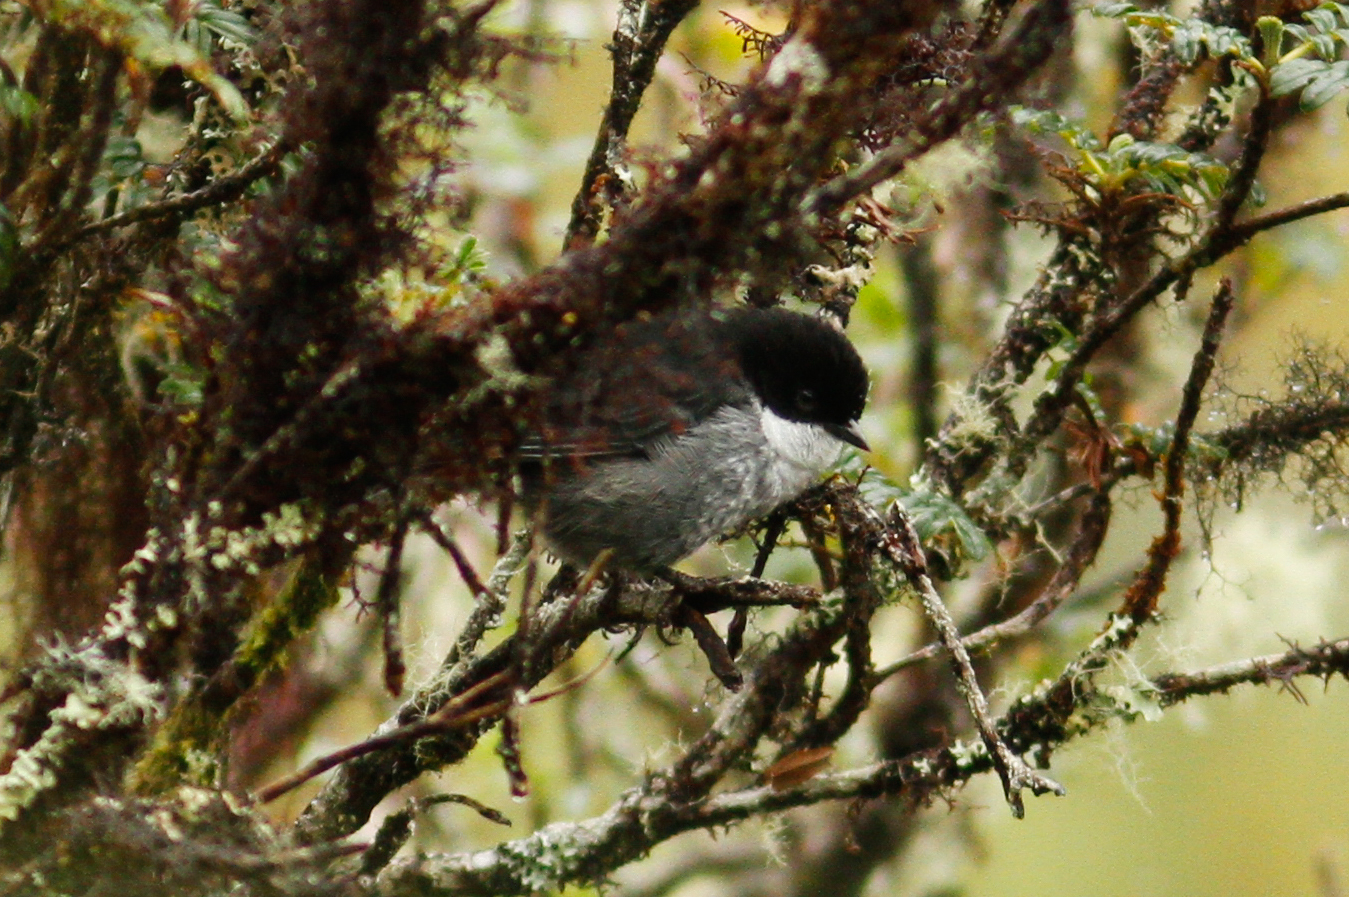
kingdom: Animalia
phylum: Chordata
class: Aves
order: Passeriformes
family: Thraupidae
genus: Urothraupis
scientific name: Urothraupis stolzmanni
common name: Black-backed bush tanager
